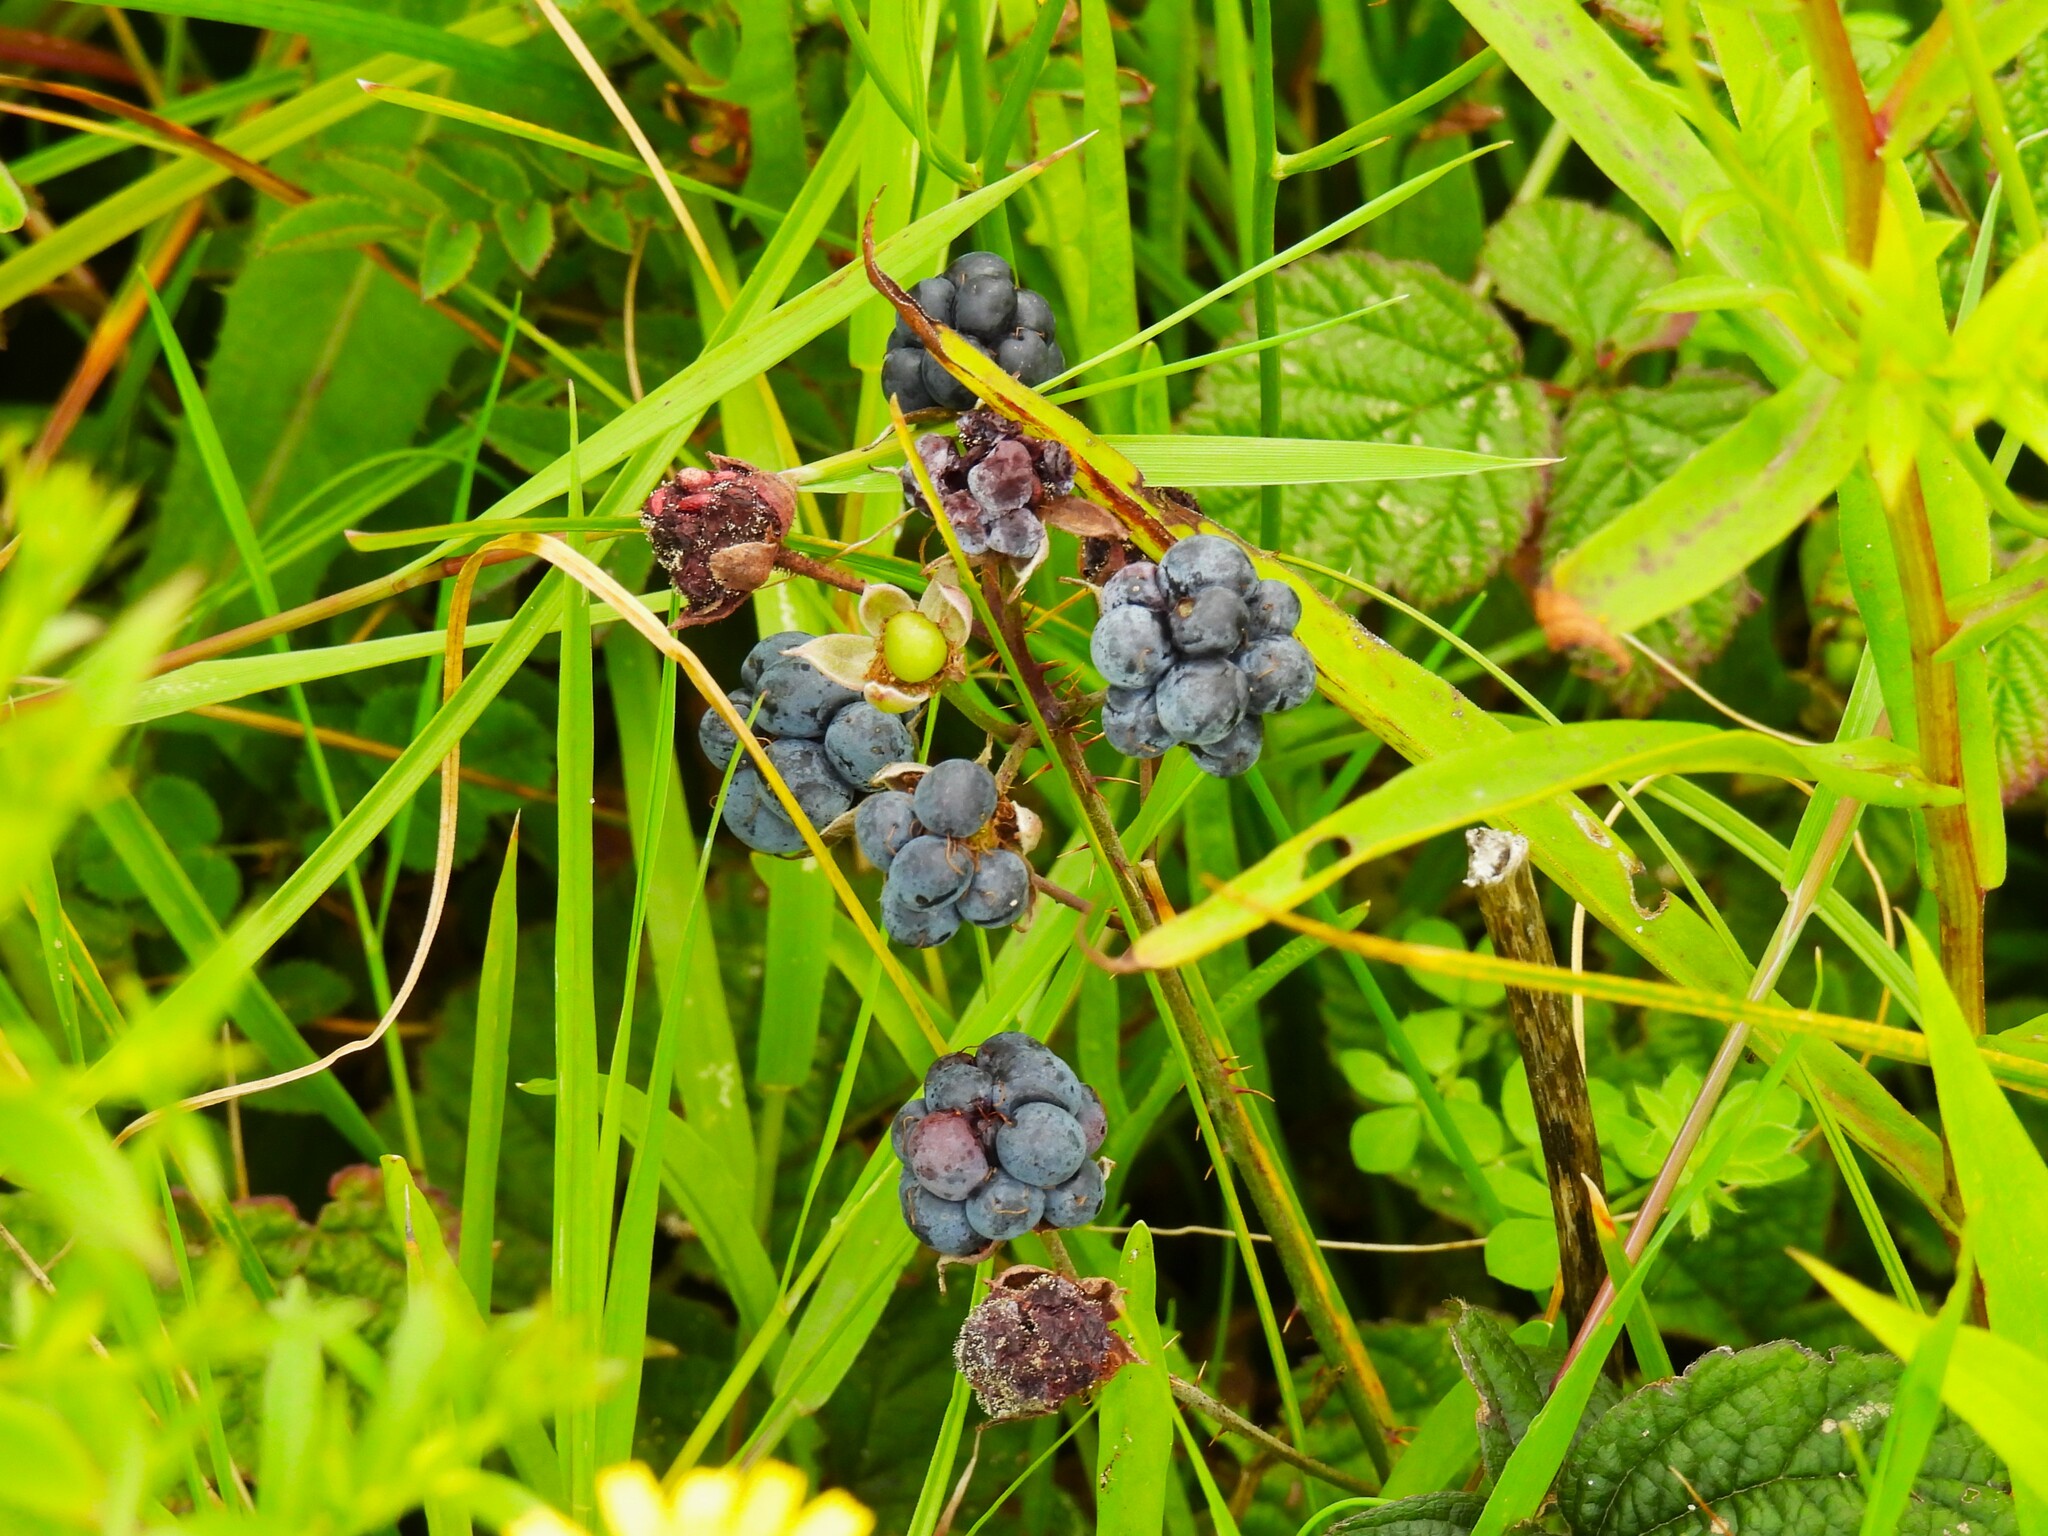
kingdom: Plantae
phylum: Tracheophyta
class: Magnoliopsida
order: Rosales
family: Rosaceae
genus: Rubus
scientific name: Rubus caesius
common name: Dewberry
